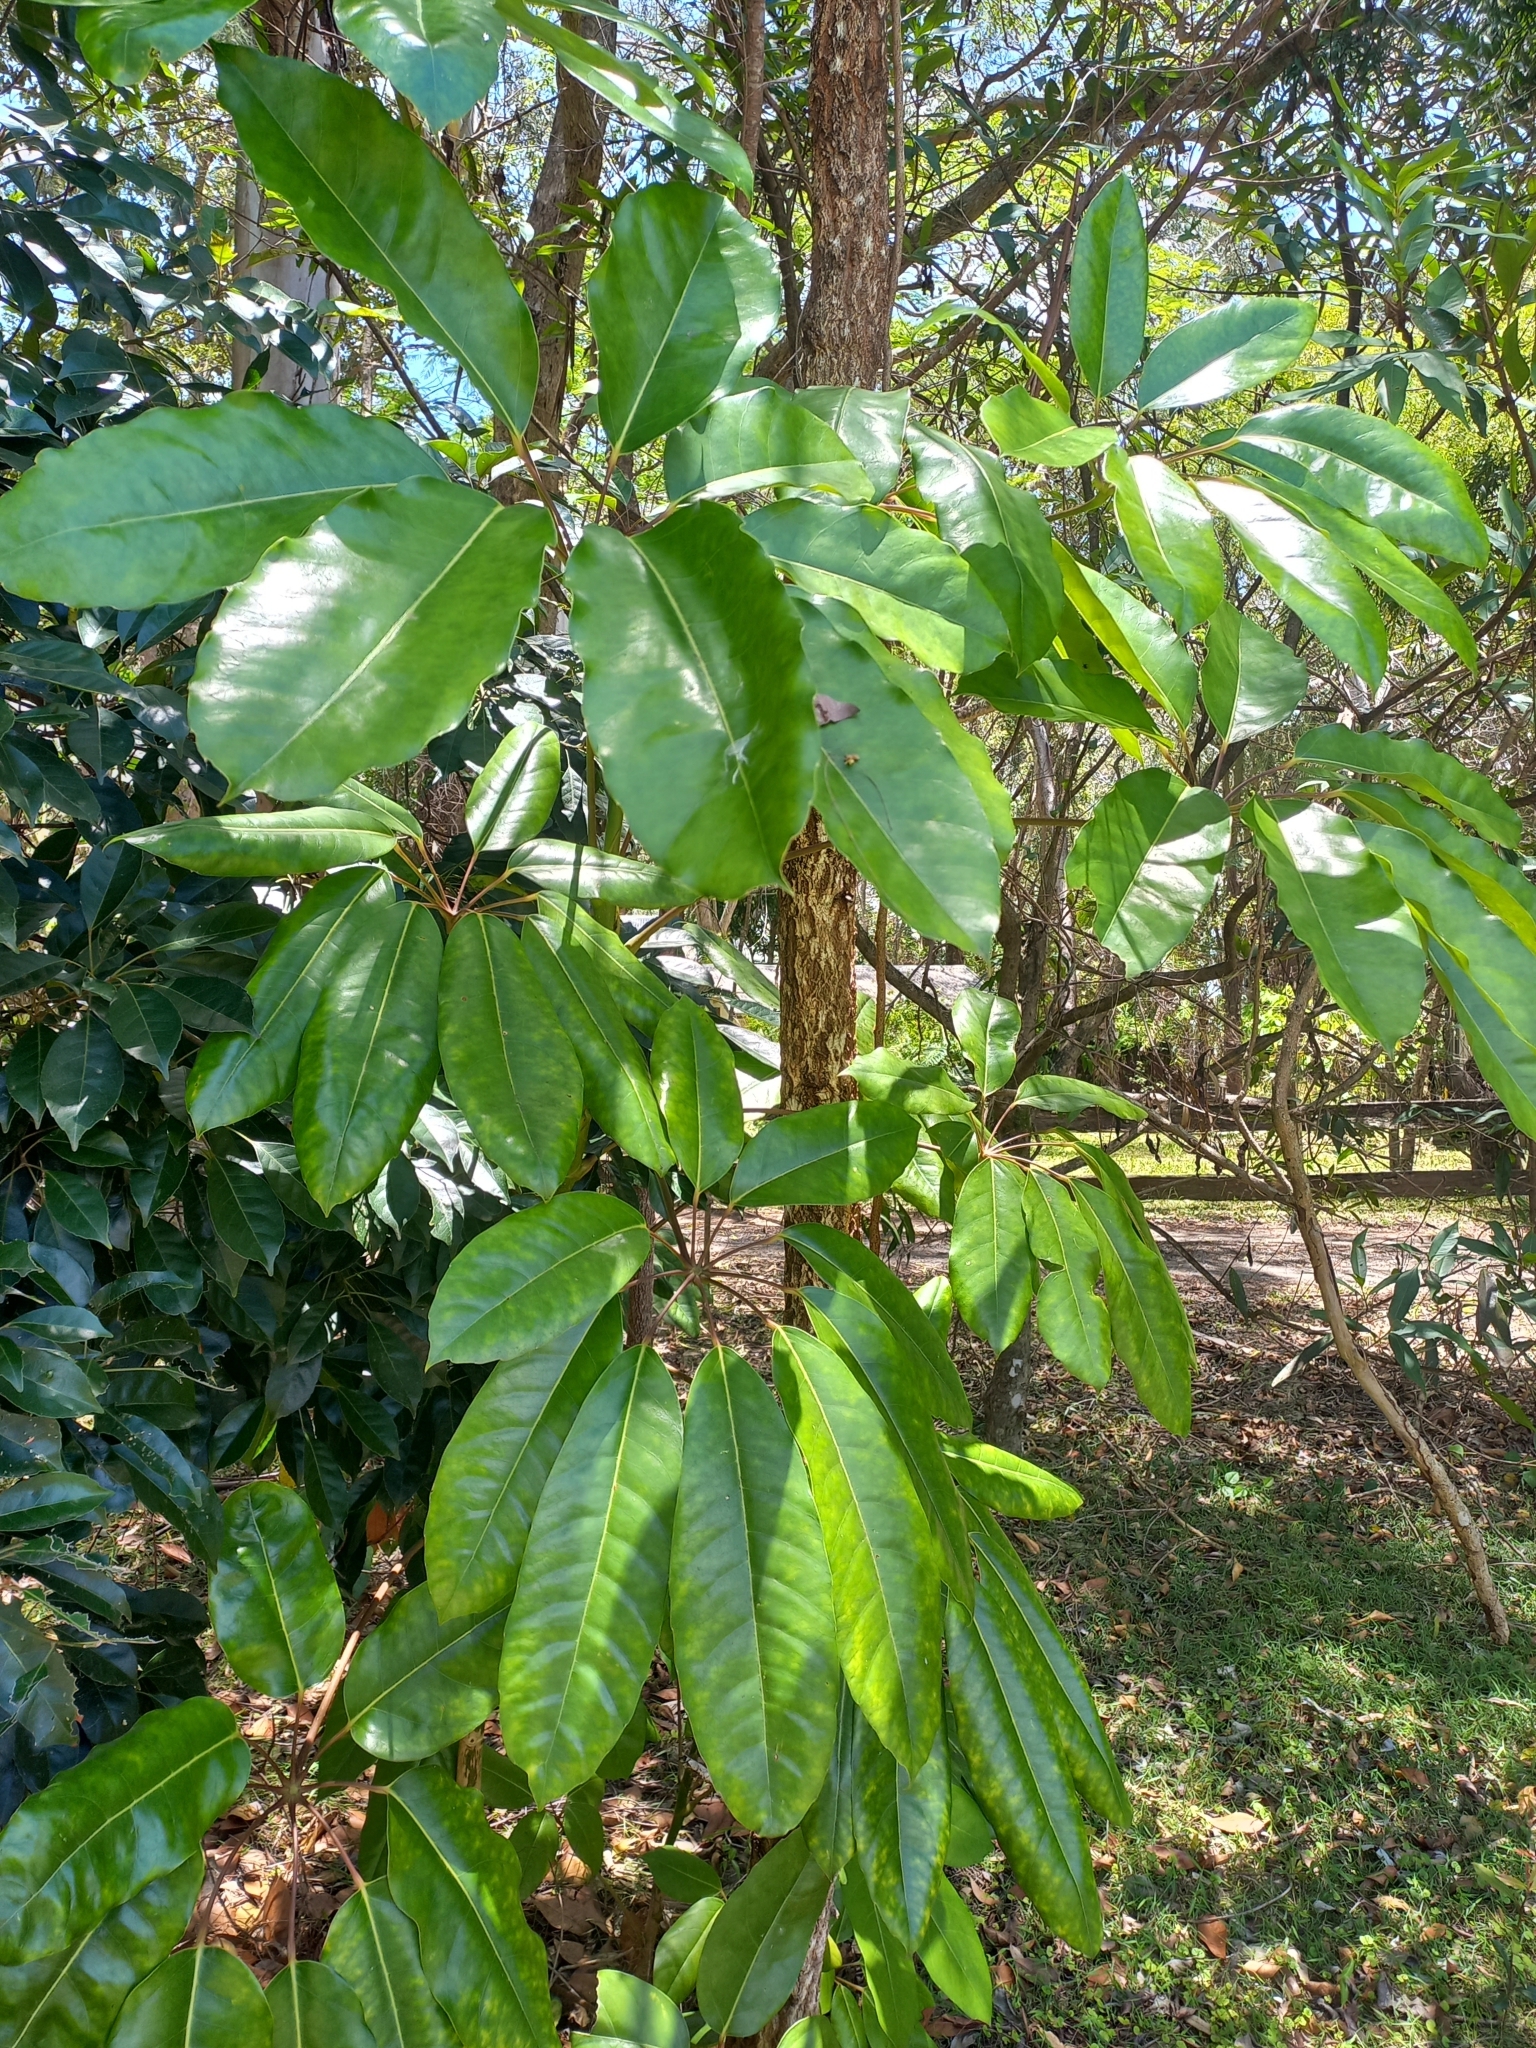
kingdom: Plantae
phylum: Tracheophyta
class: Magnoliopsida
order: Apiales
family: Araliaceae
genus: Heptapleurum
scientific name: Heptapleurum actinophyllum
